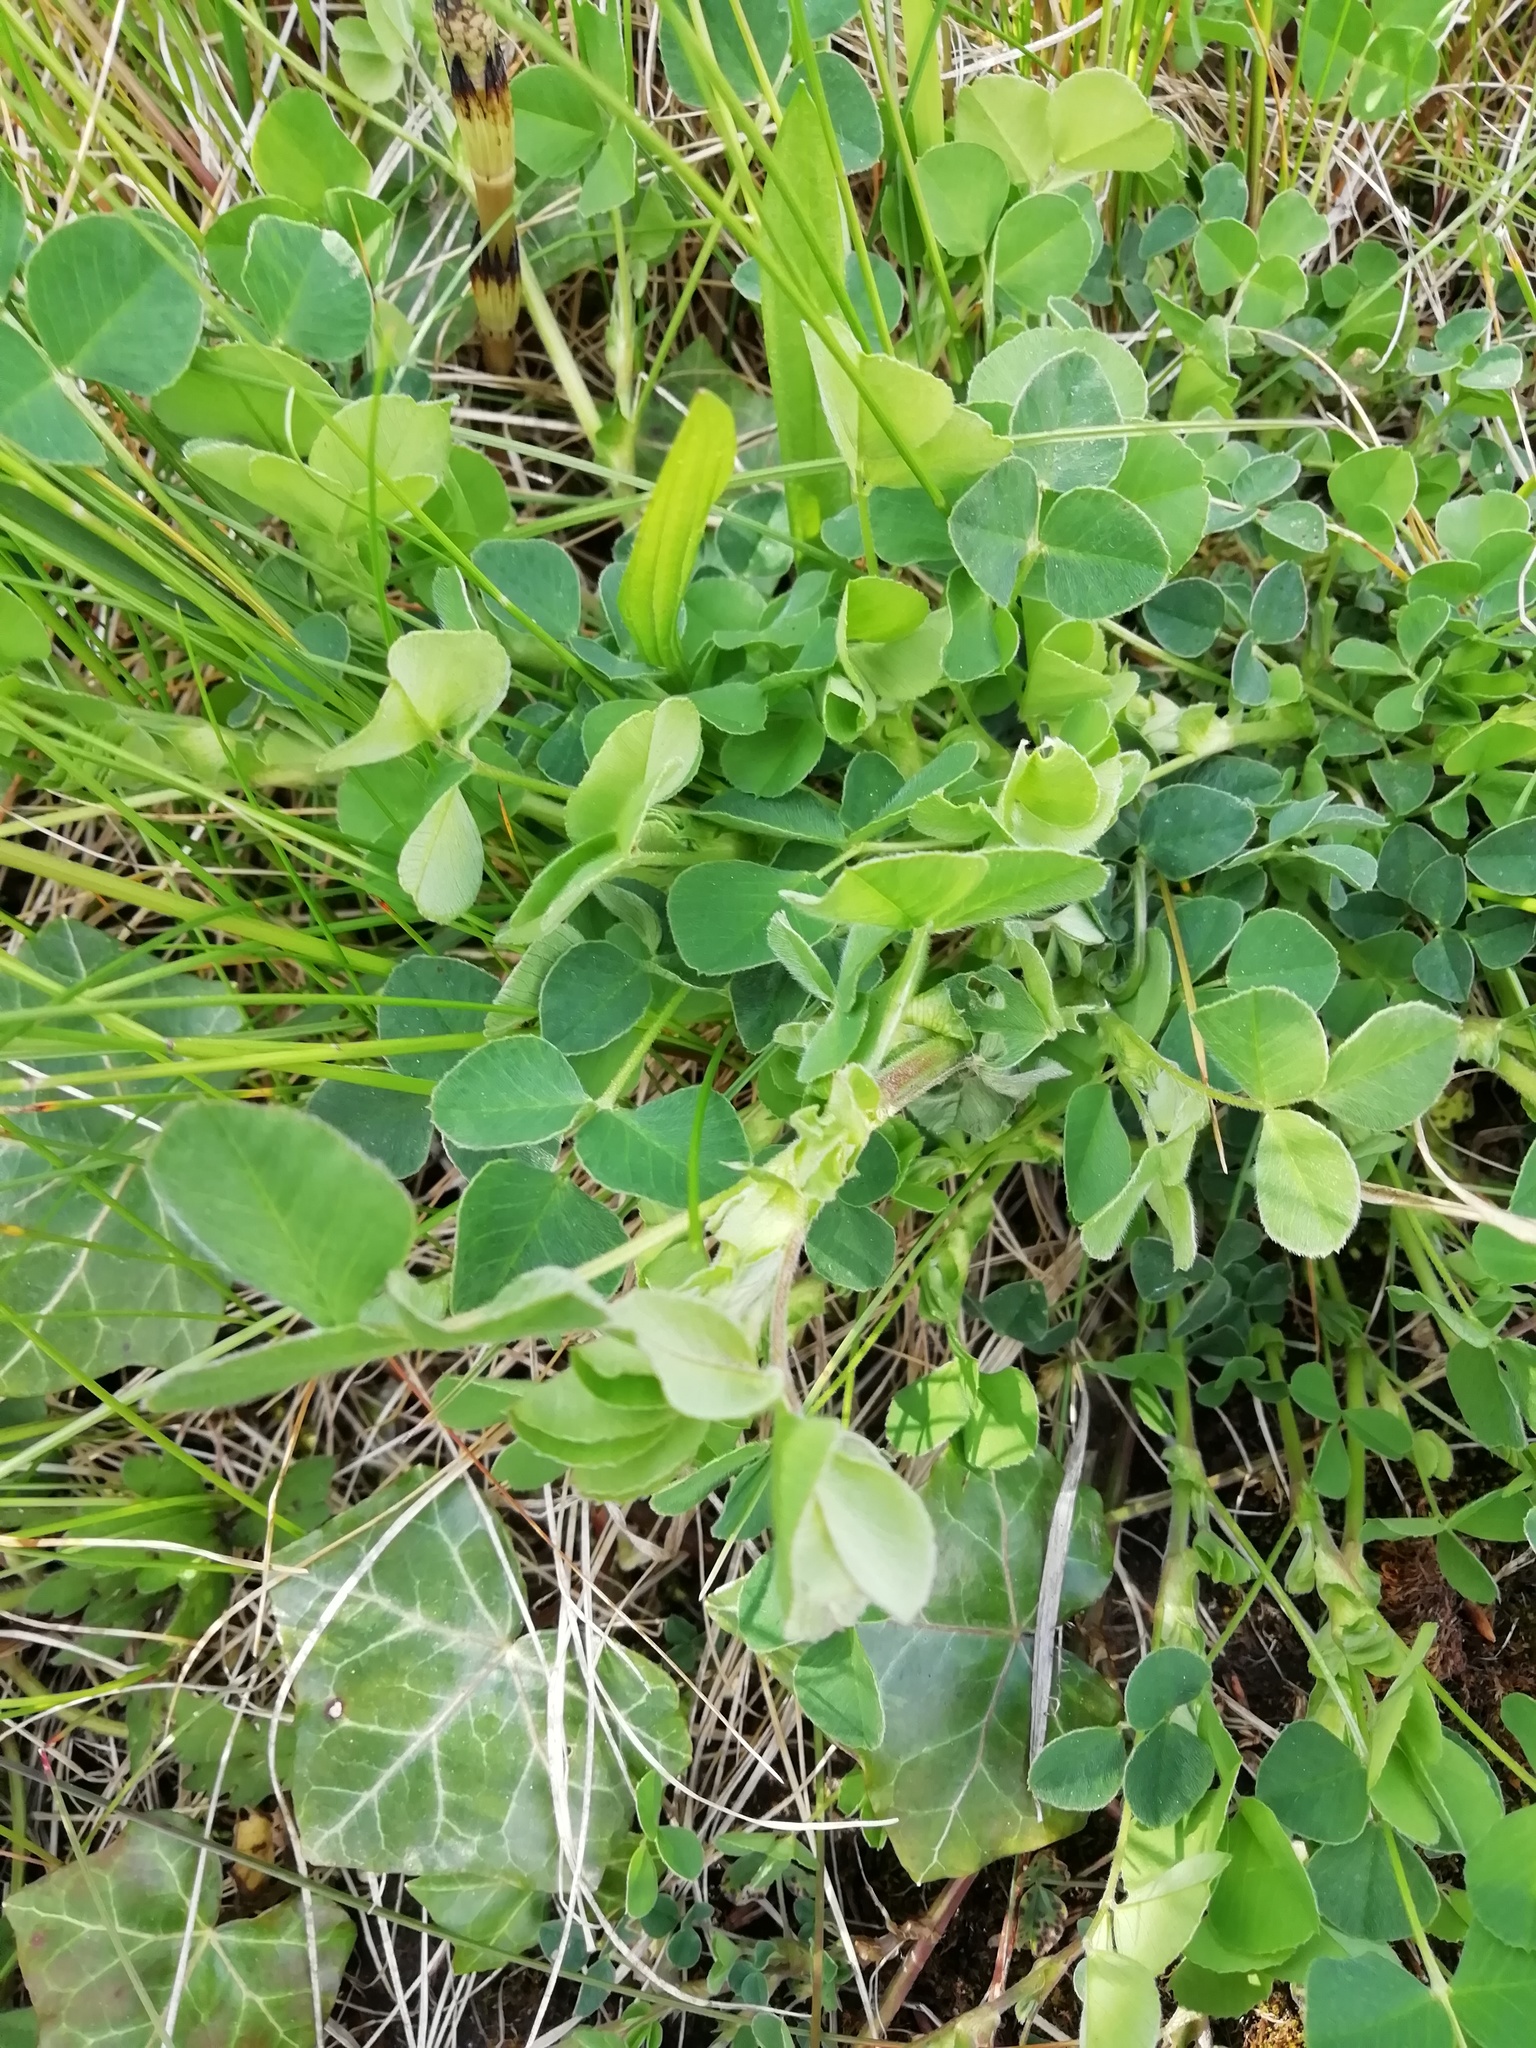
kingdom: Plantae
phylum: Tracheophyta
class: Magnoliopsida
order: Fabales
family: Fabaceae
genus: Medicago
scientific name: Medicago lupulina
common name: Black medick
